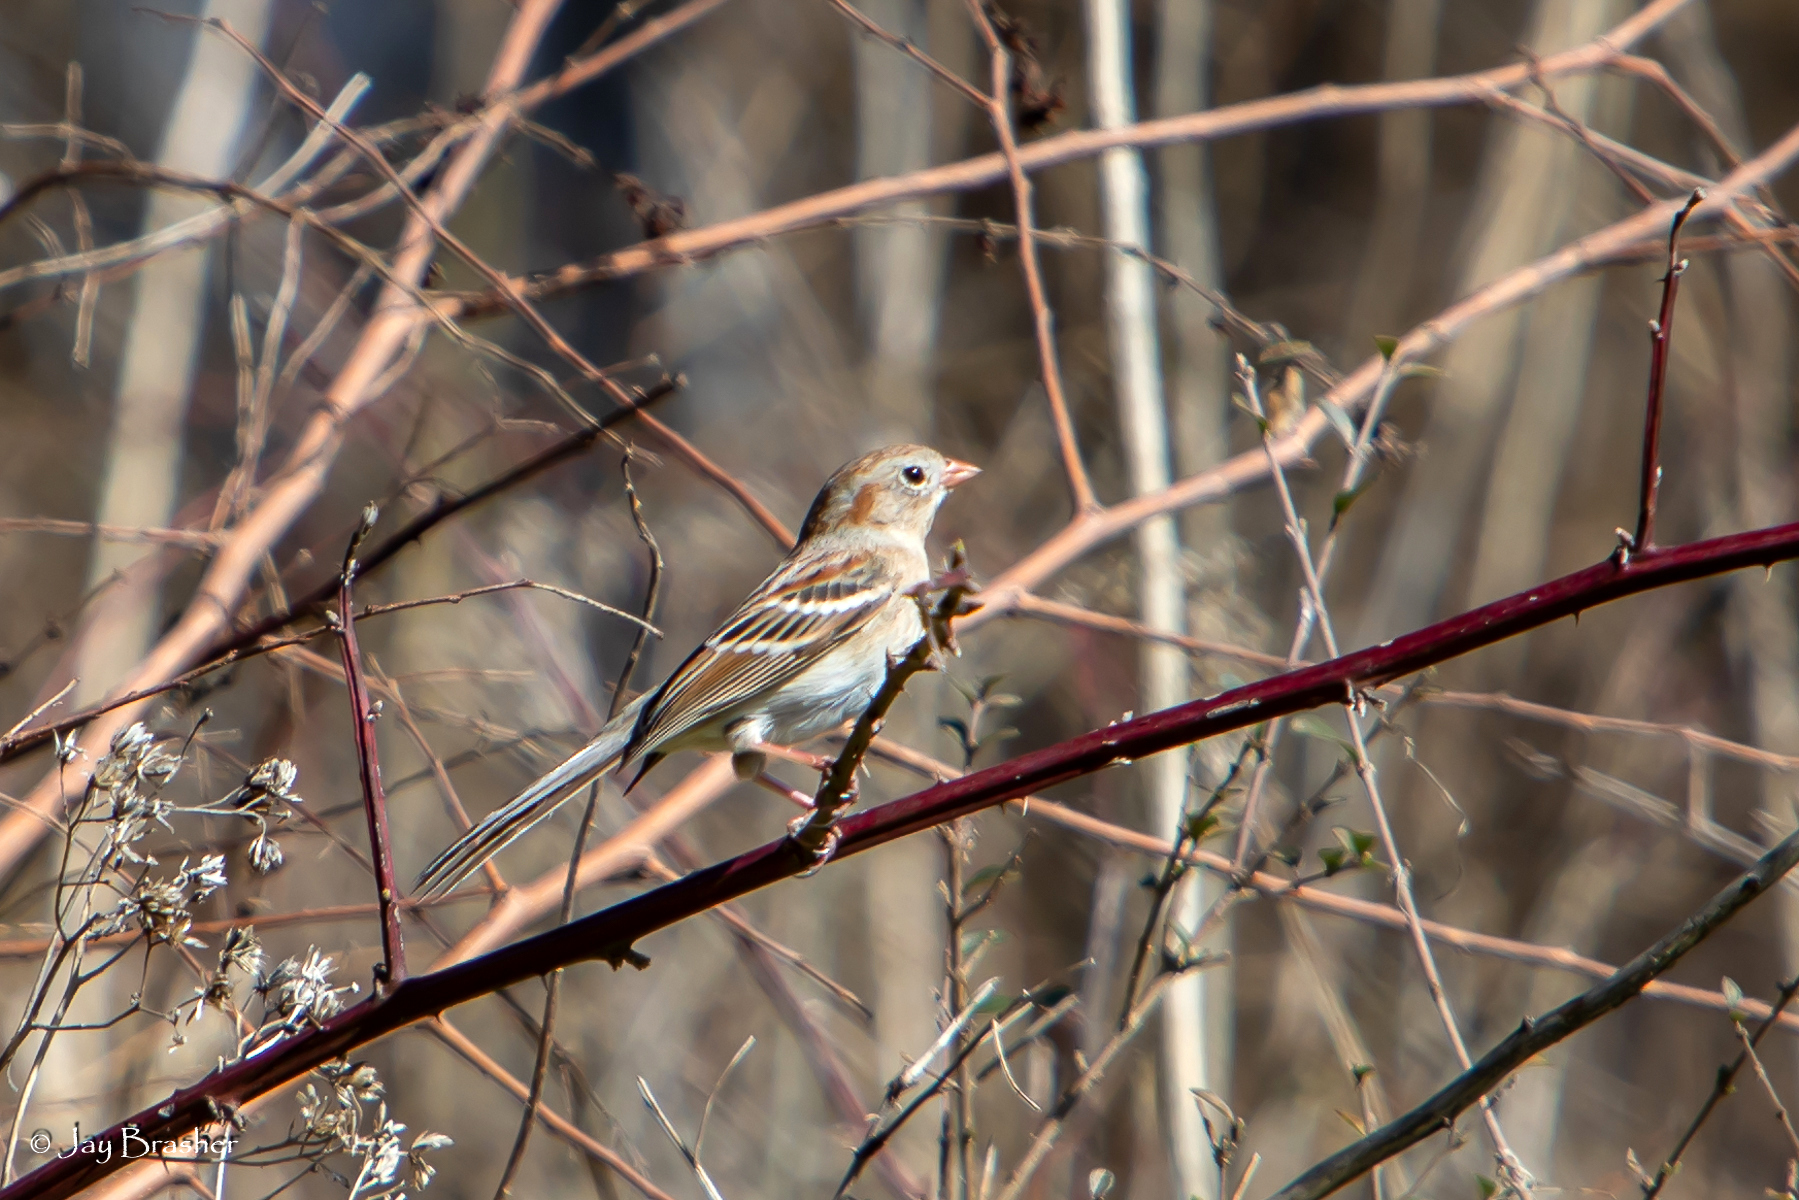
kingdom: Animalia
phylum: Chordata
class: Aves
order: Passeriformes
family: Passerellidae
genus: Spizella
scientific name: Spizella pusilla
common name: Field sparrow
